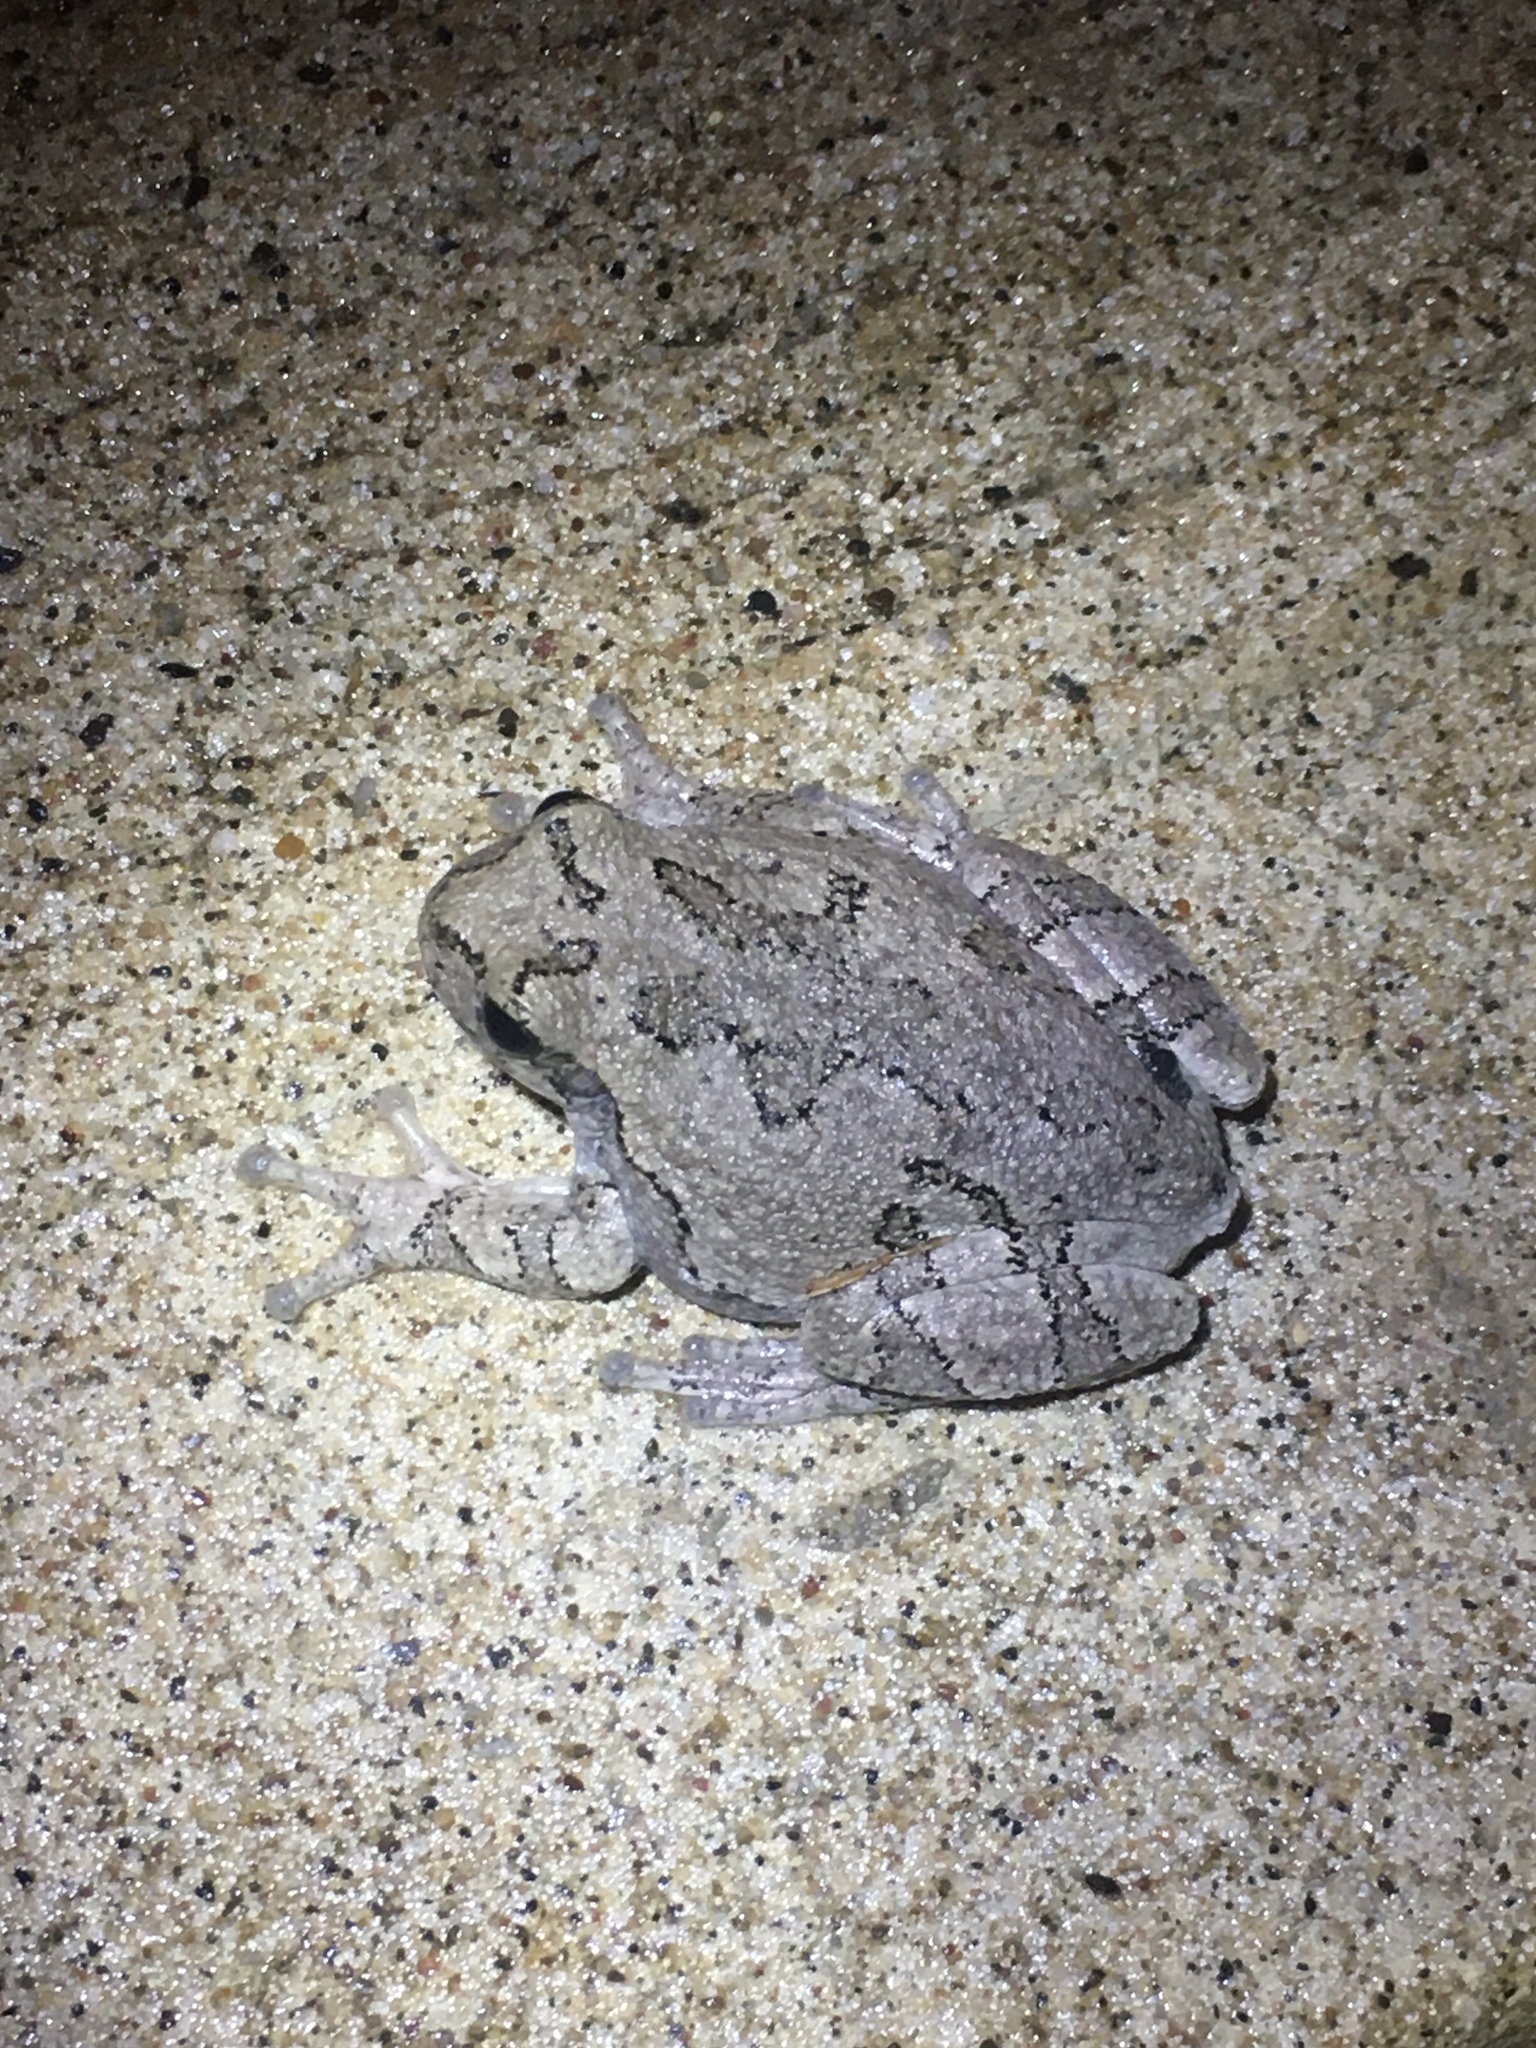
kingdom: Animalia
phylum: Chordata
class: Amphibia
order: Anura
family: Hylidae
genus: Hyla
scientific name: Hyla
